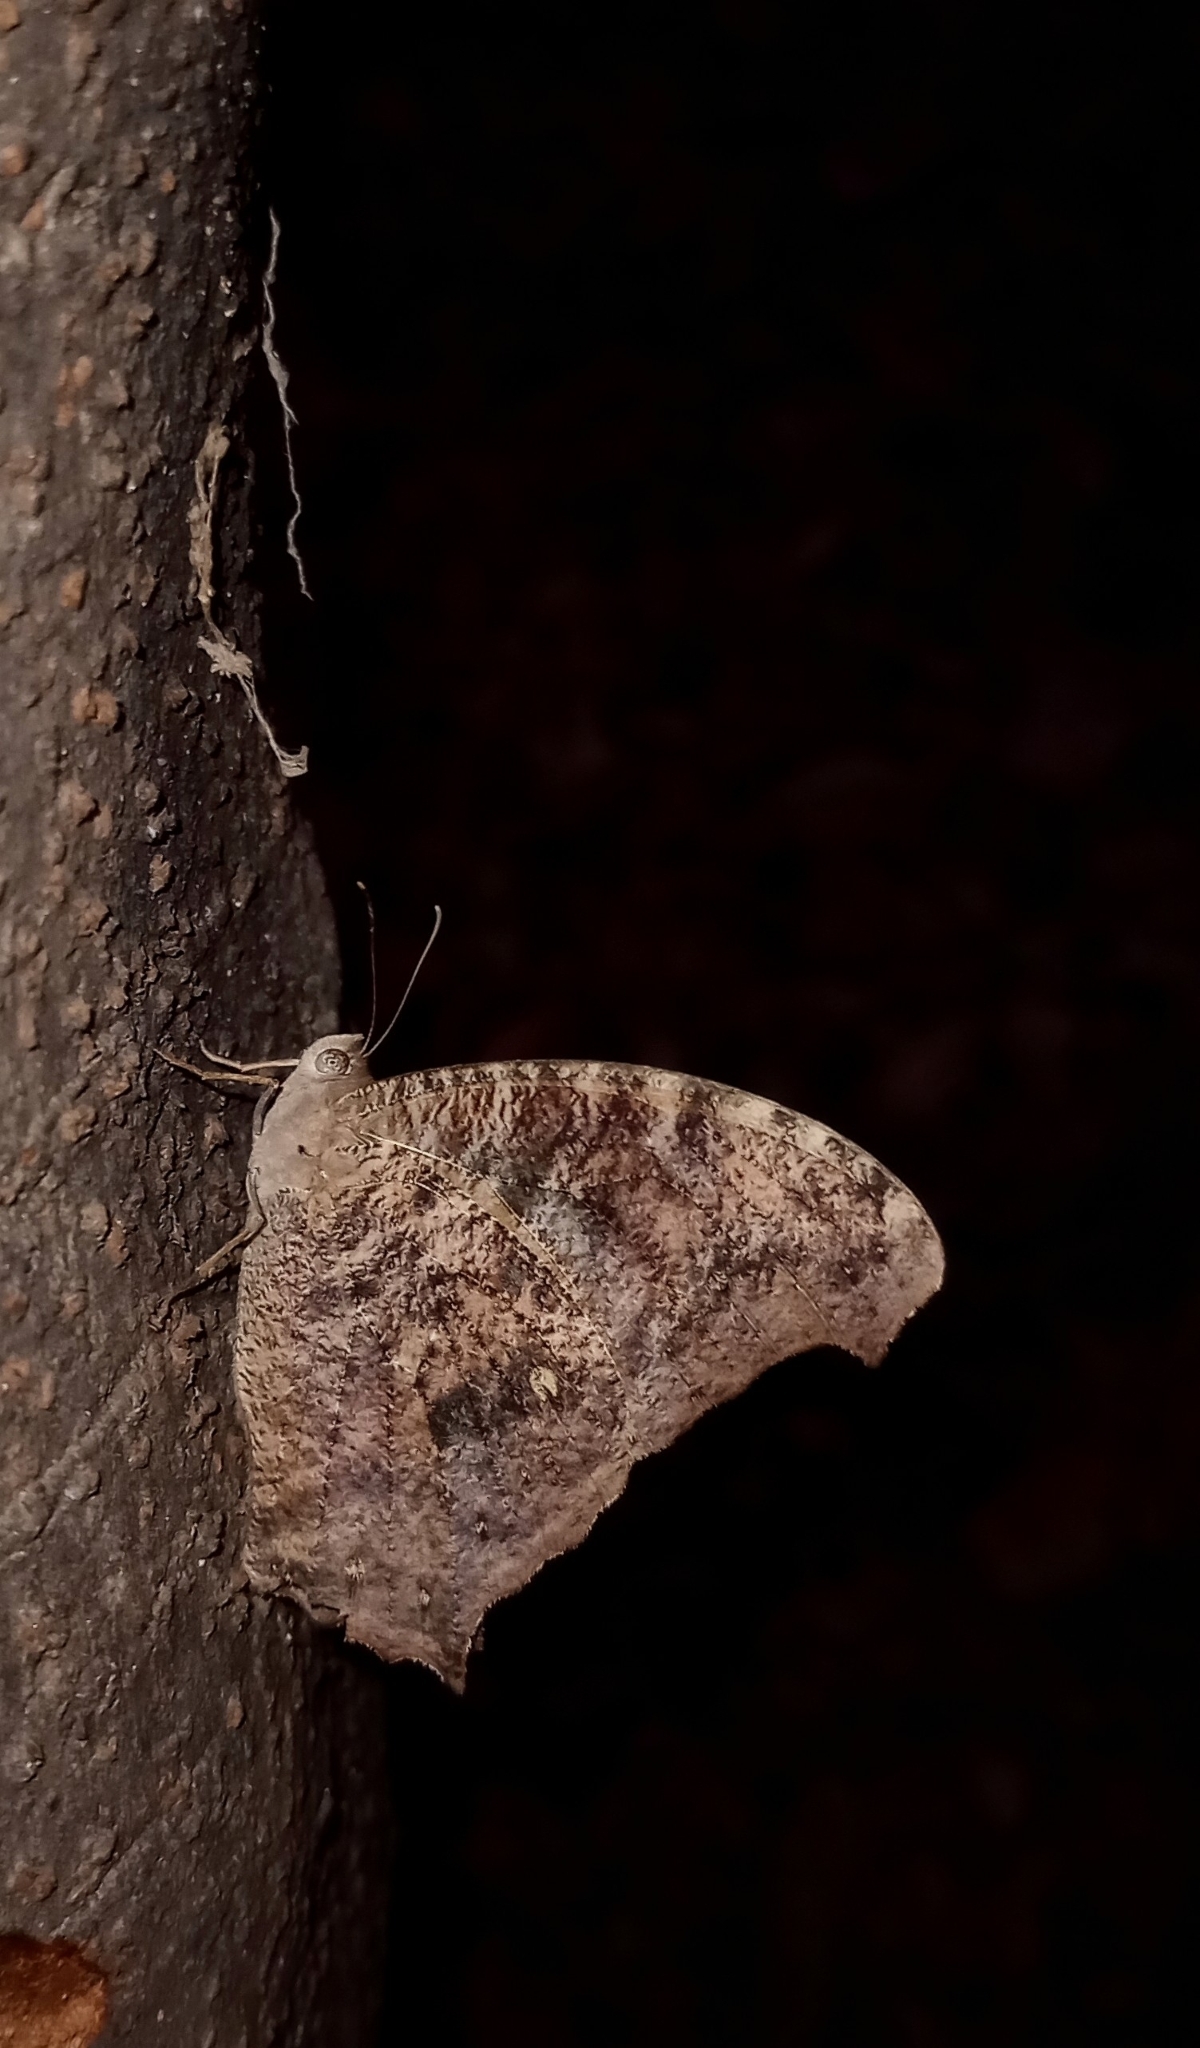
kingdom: Animalia
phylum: Arthropoda
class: Insecta
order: Lepidoptera
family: Nymphalidae
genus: Melanitis
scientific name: Melanitis leda
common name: Twilight brown
